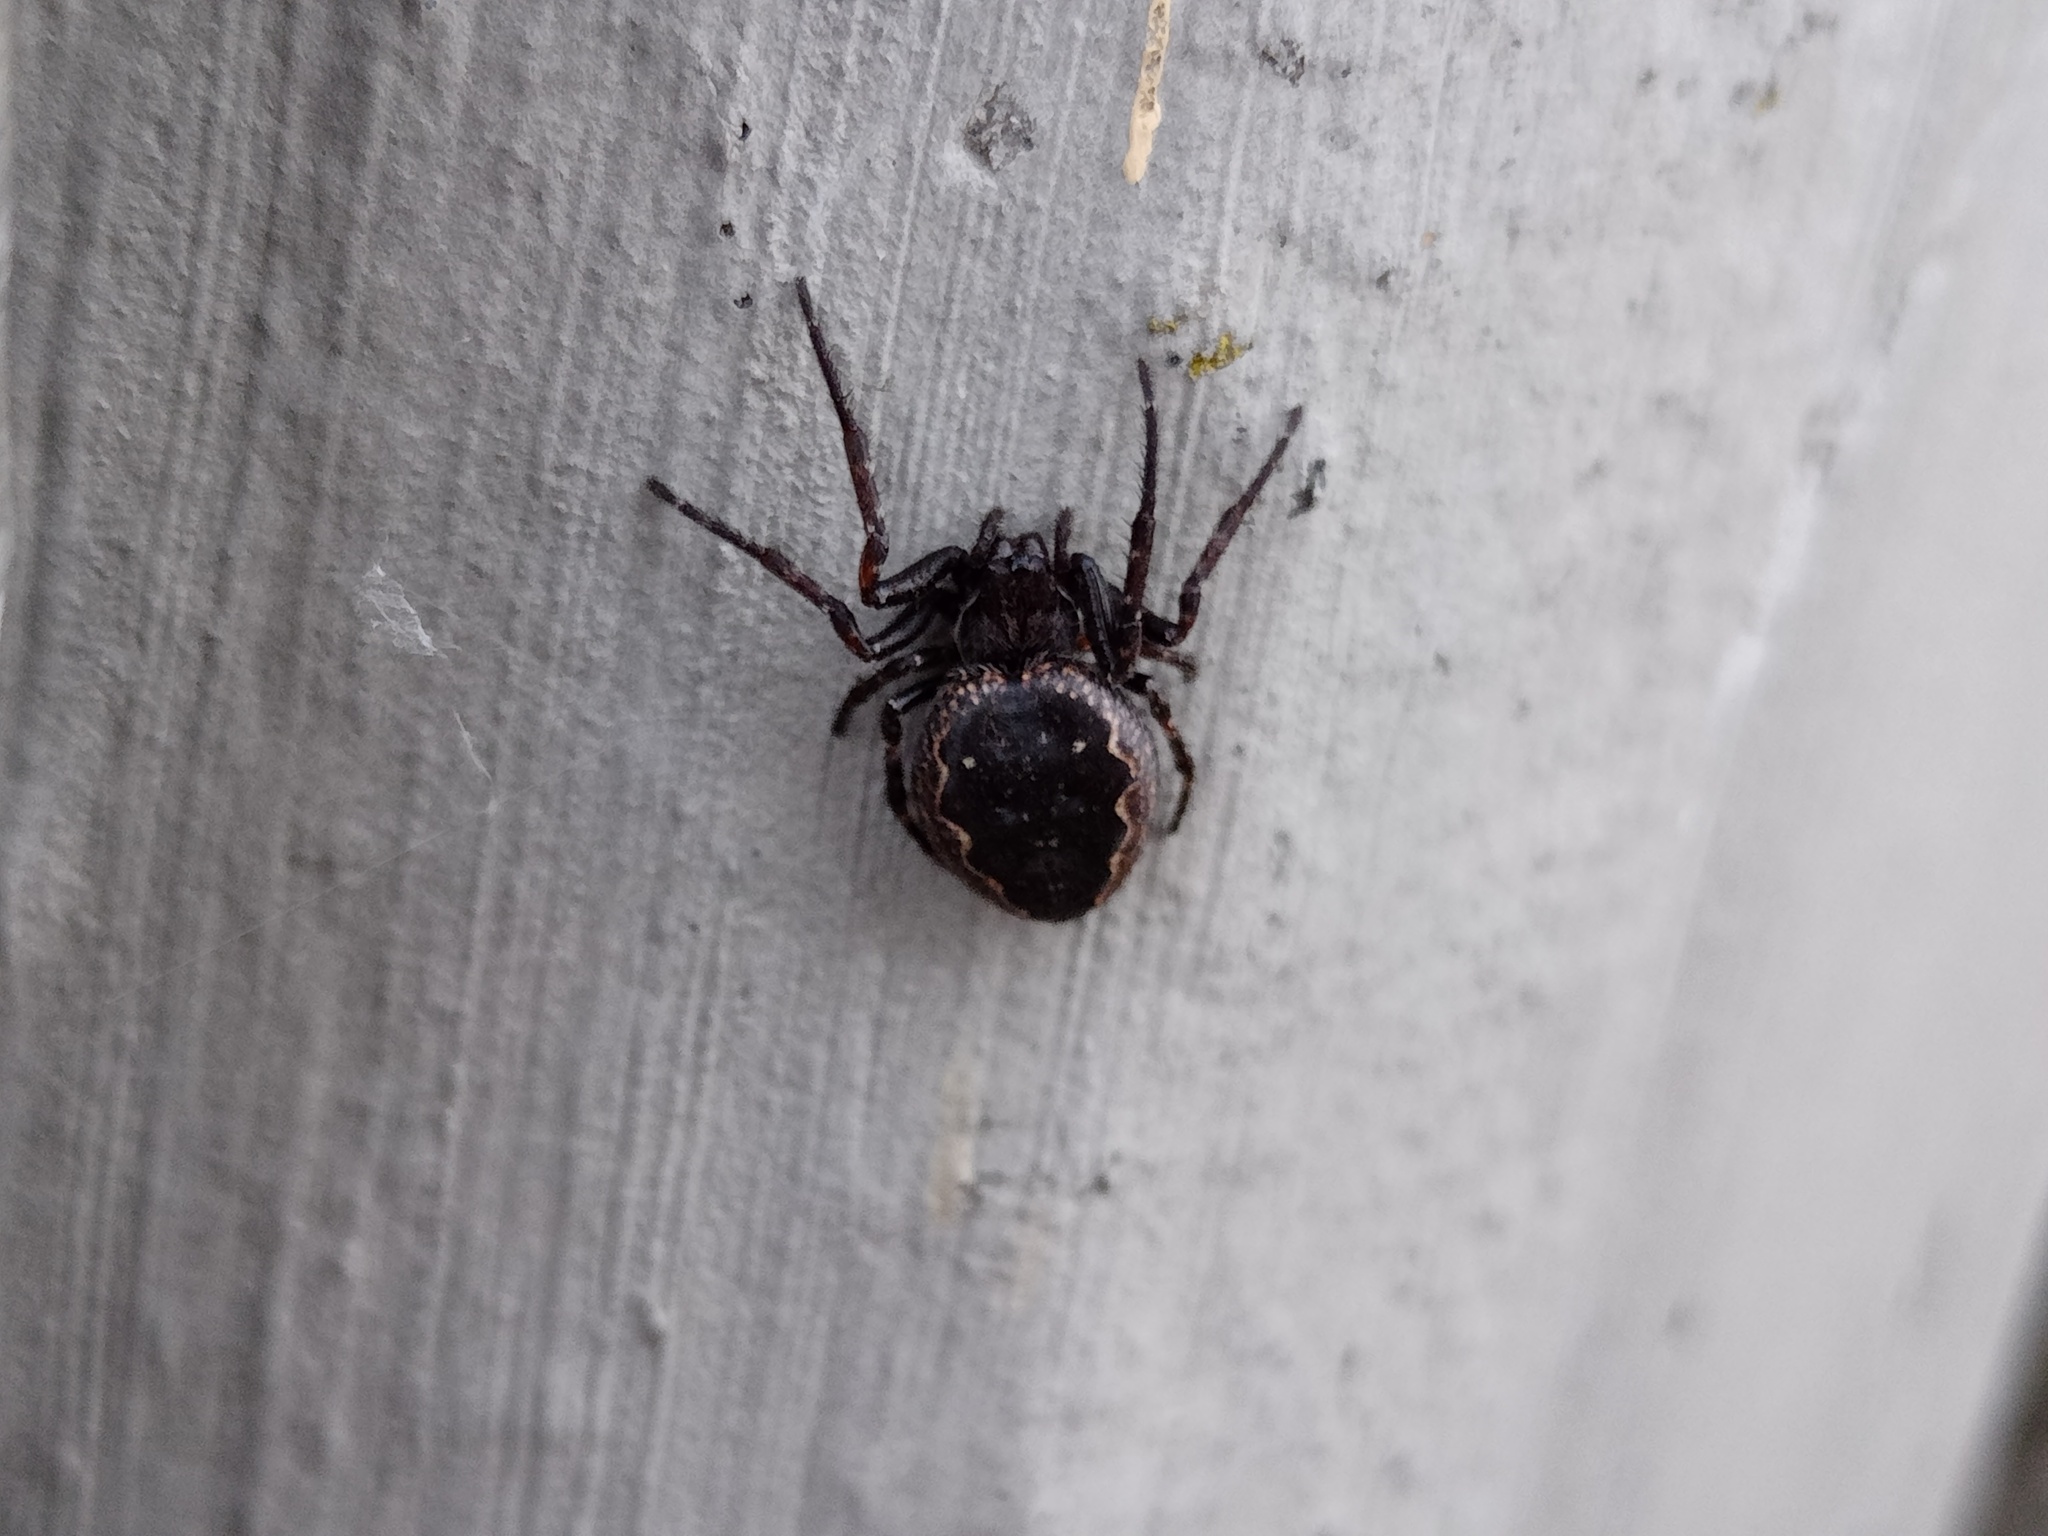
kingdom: Animalia
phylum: Arthropoda
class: Arachnida
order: Araneae
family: Araneidae
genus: Nuctenea
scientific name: Nuctenea umbratica
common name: Toad spider
